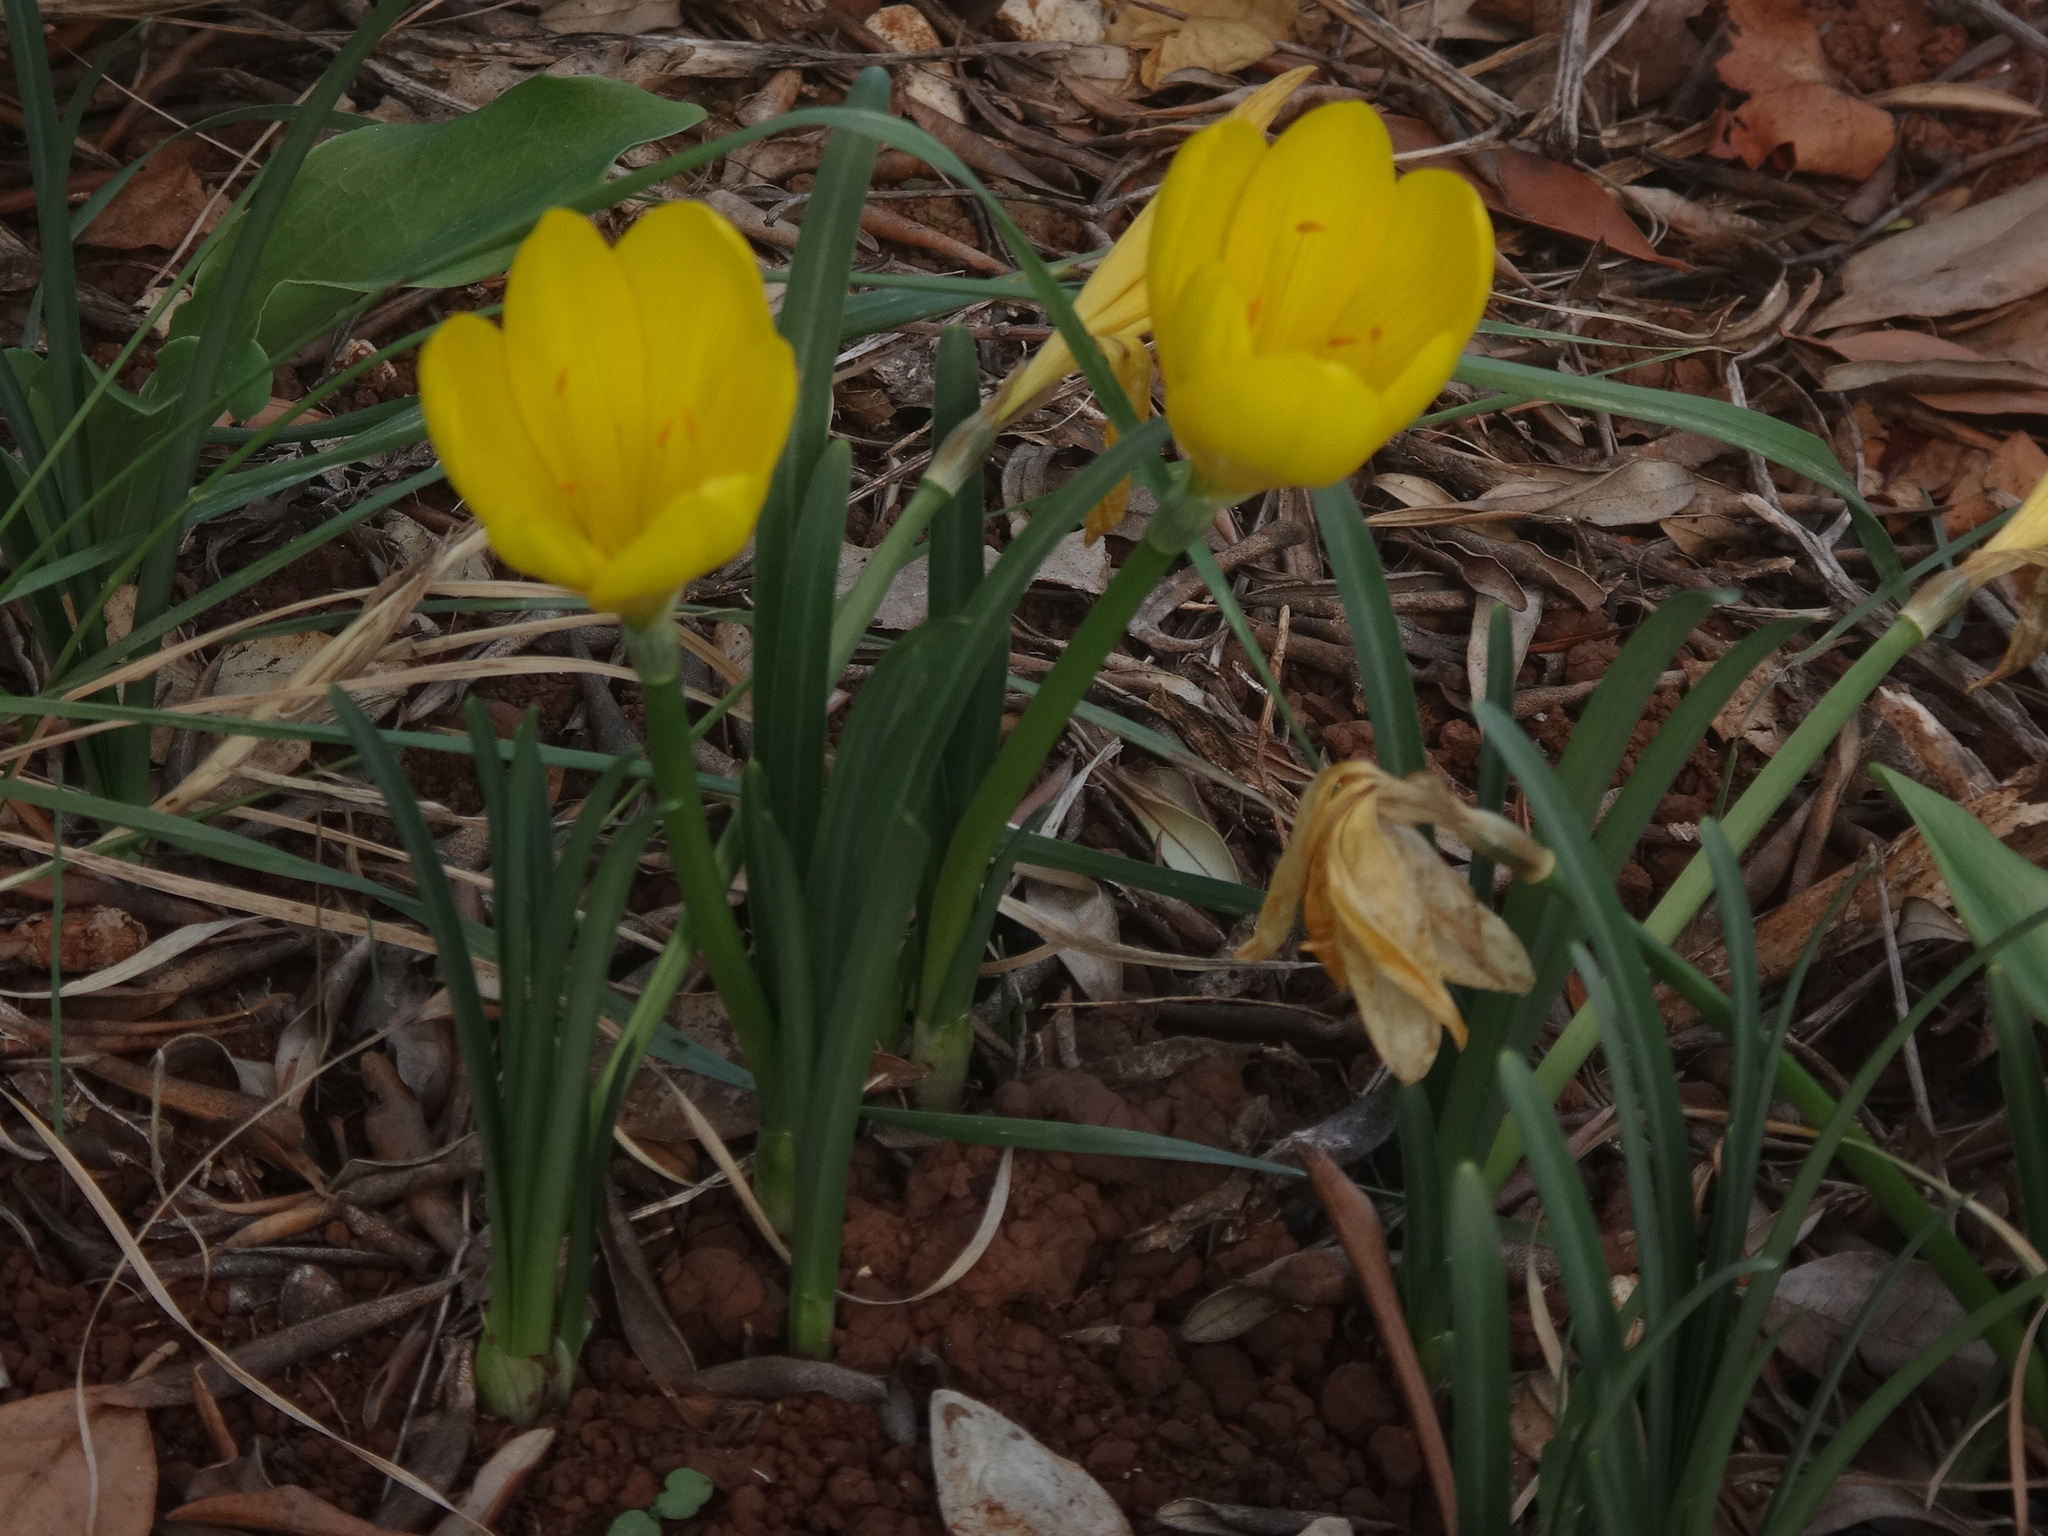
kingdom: Plantae
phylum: Tracheophyta
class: Liliopsida
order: Asparagales
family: Amaryllidaceae
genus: Sternbergia
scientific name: Sternbergia lutea
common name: Winter daffodil
